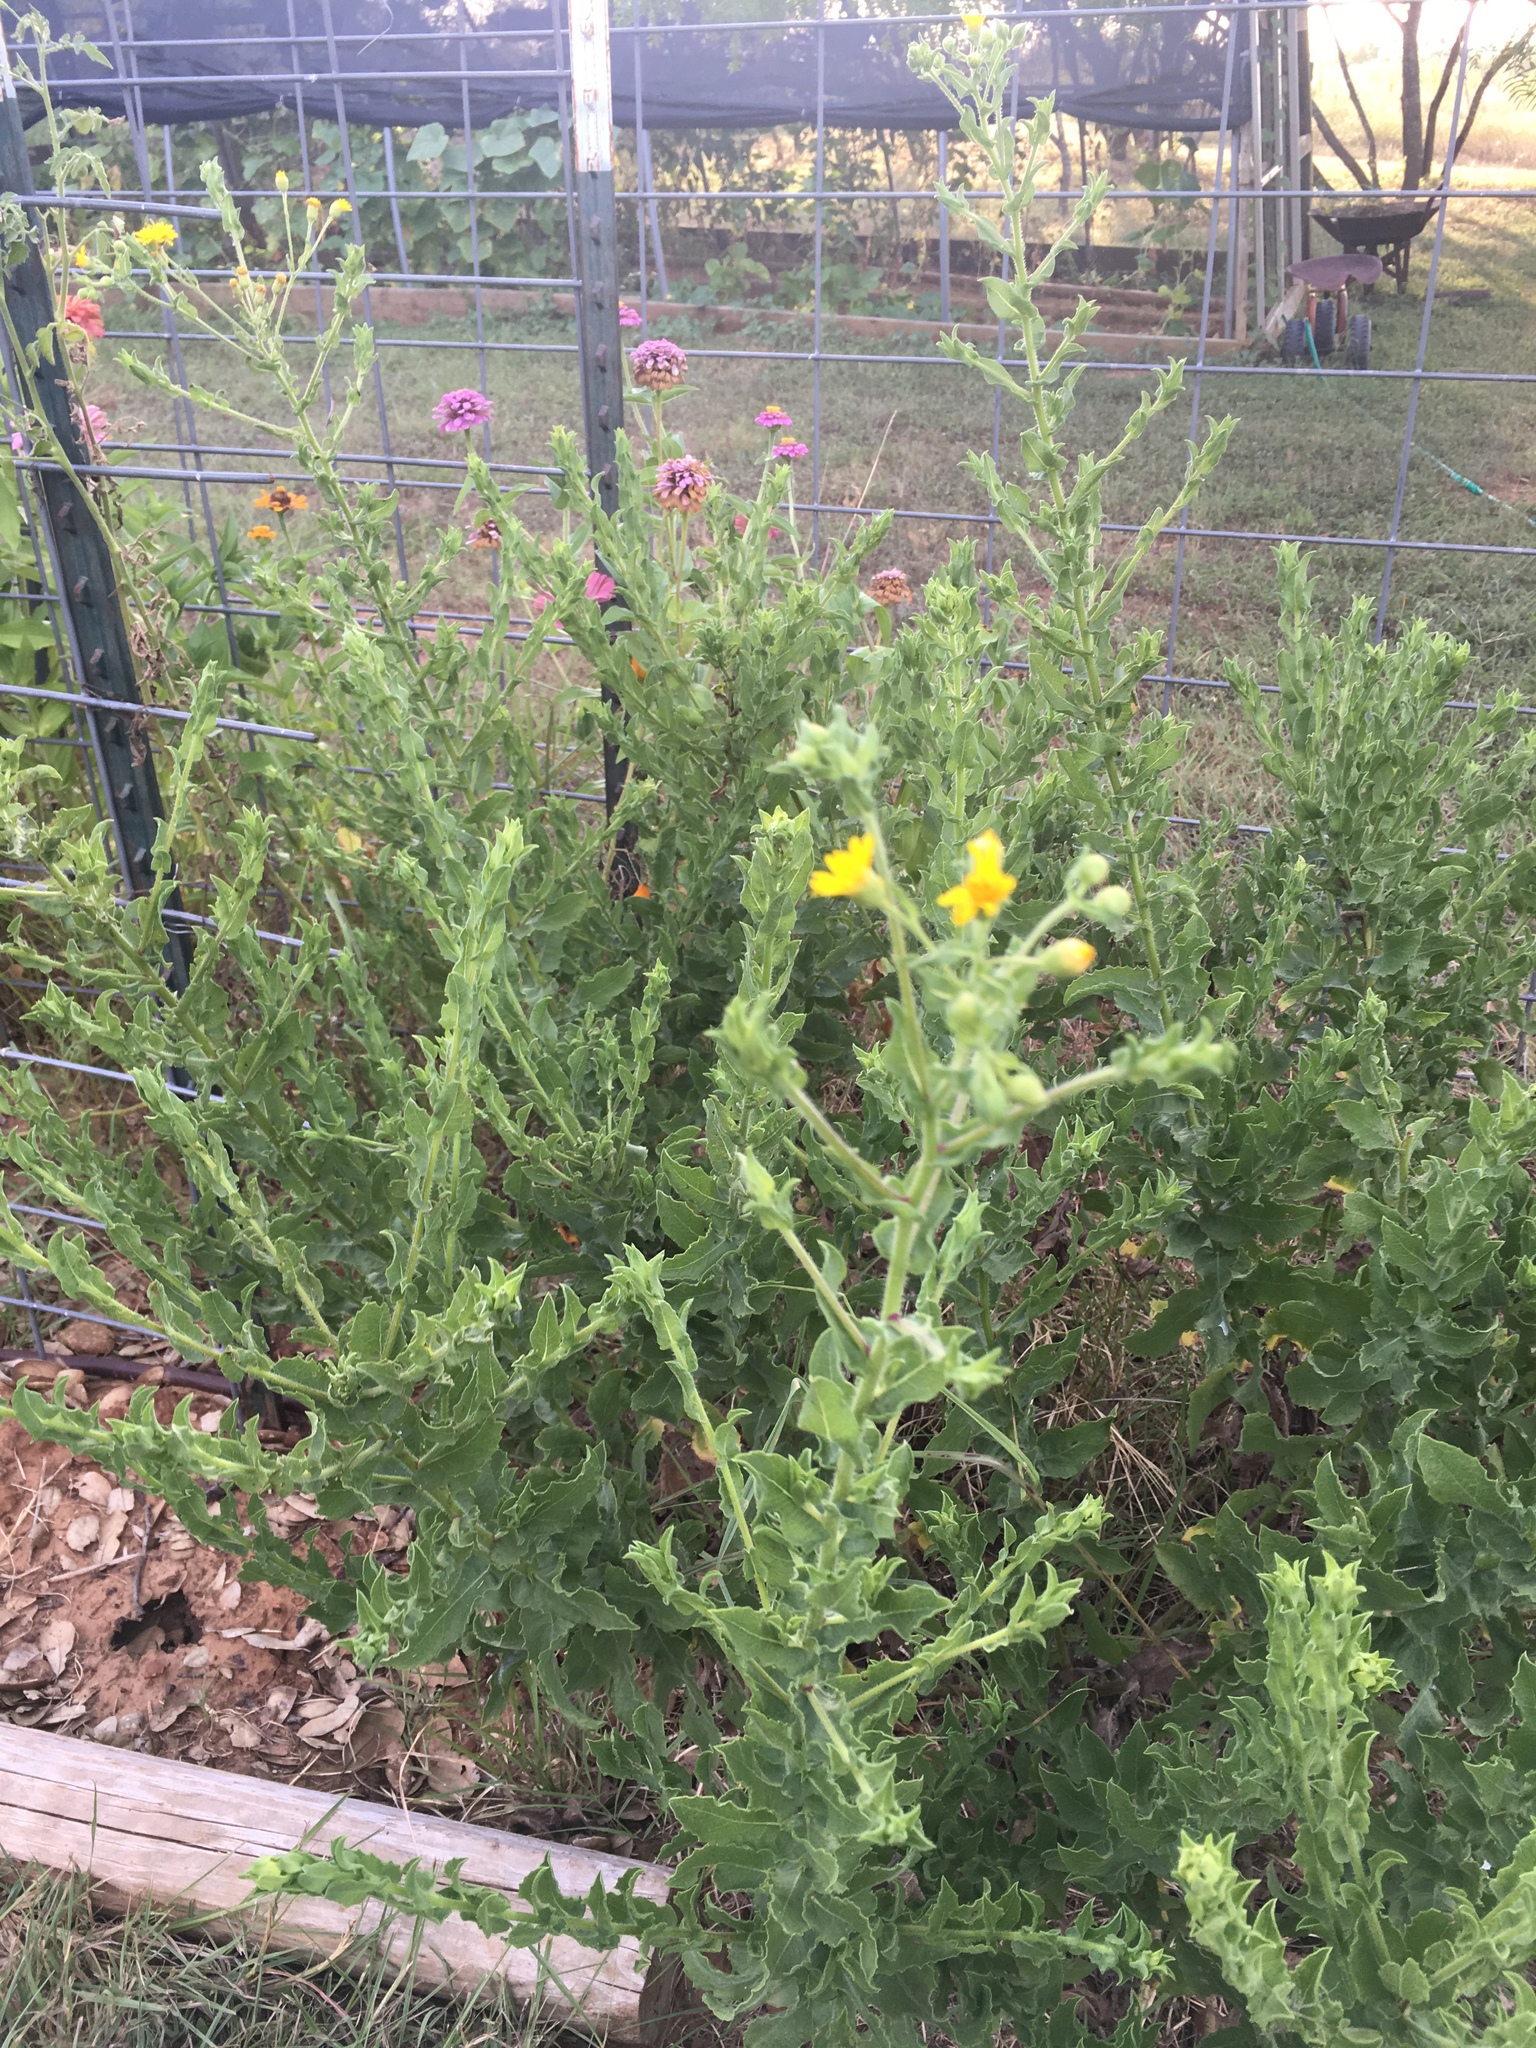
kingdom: Plantae
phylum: Tracheophyta
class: Magnoliopsida
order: Asterales
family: Asteraceae
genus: Heterotheca
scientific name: Heterotheca subaxillaris
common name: Camphorweed
